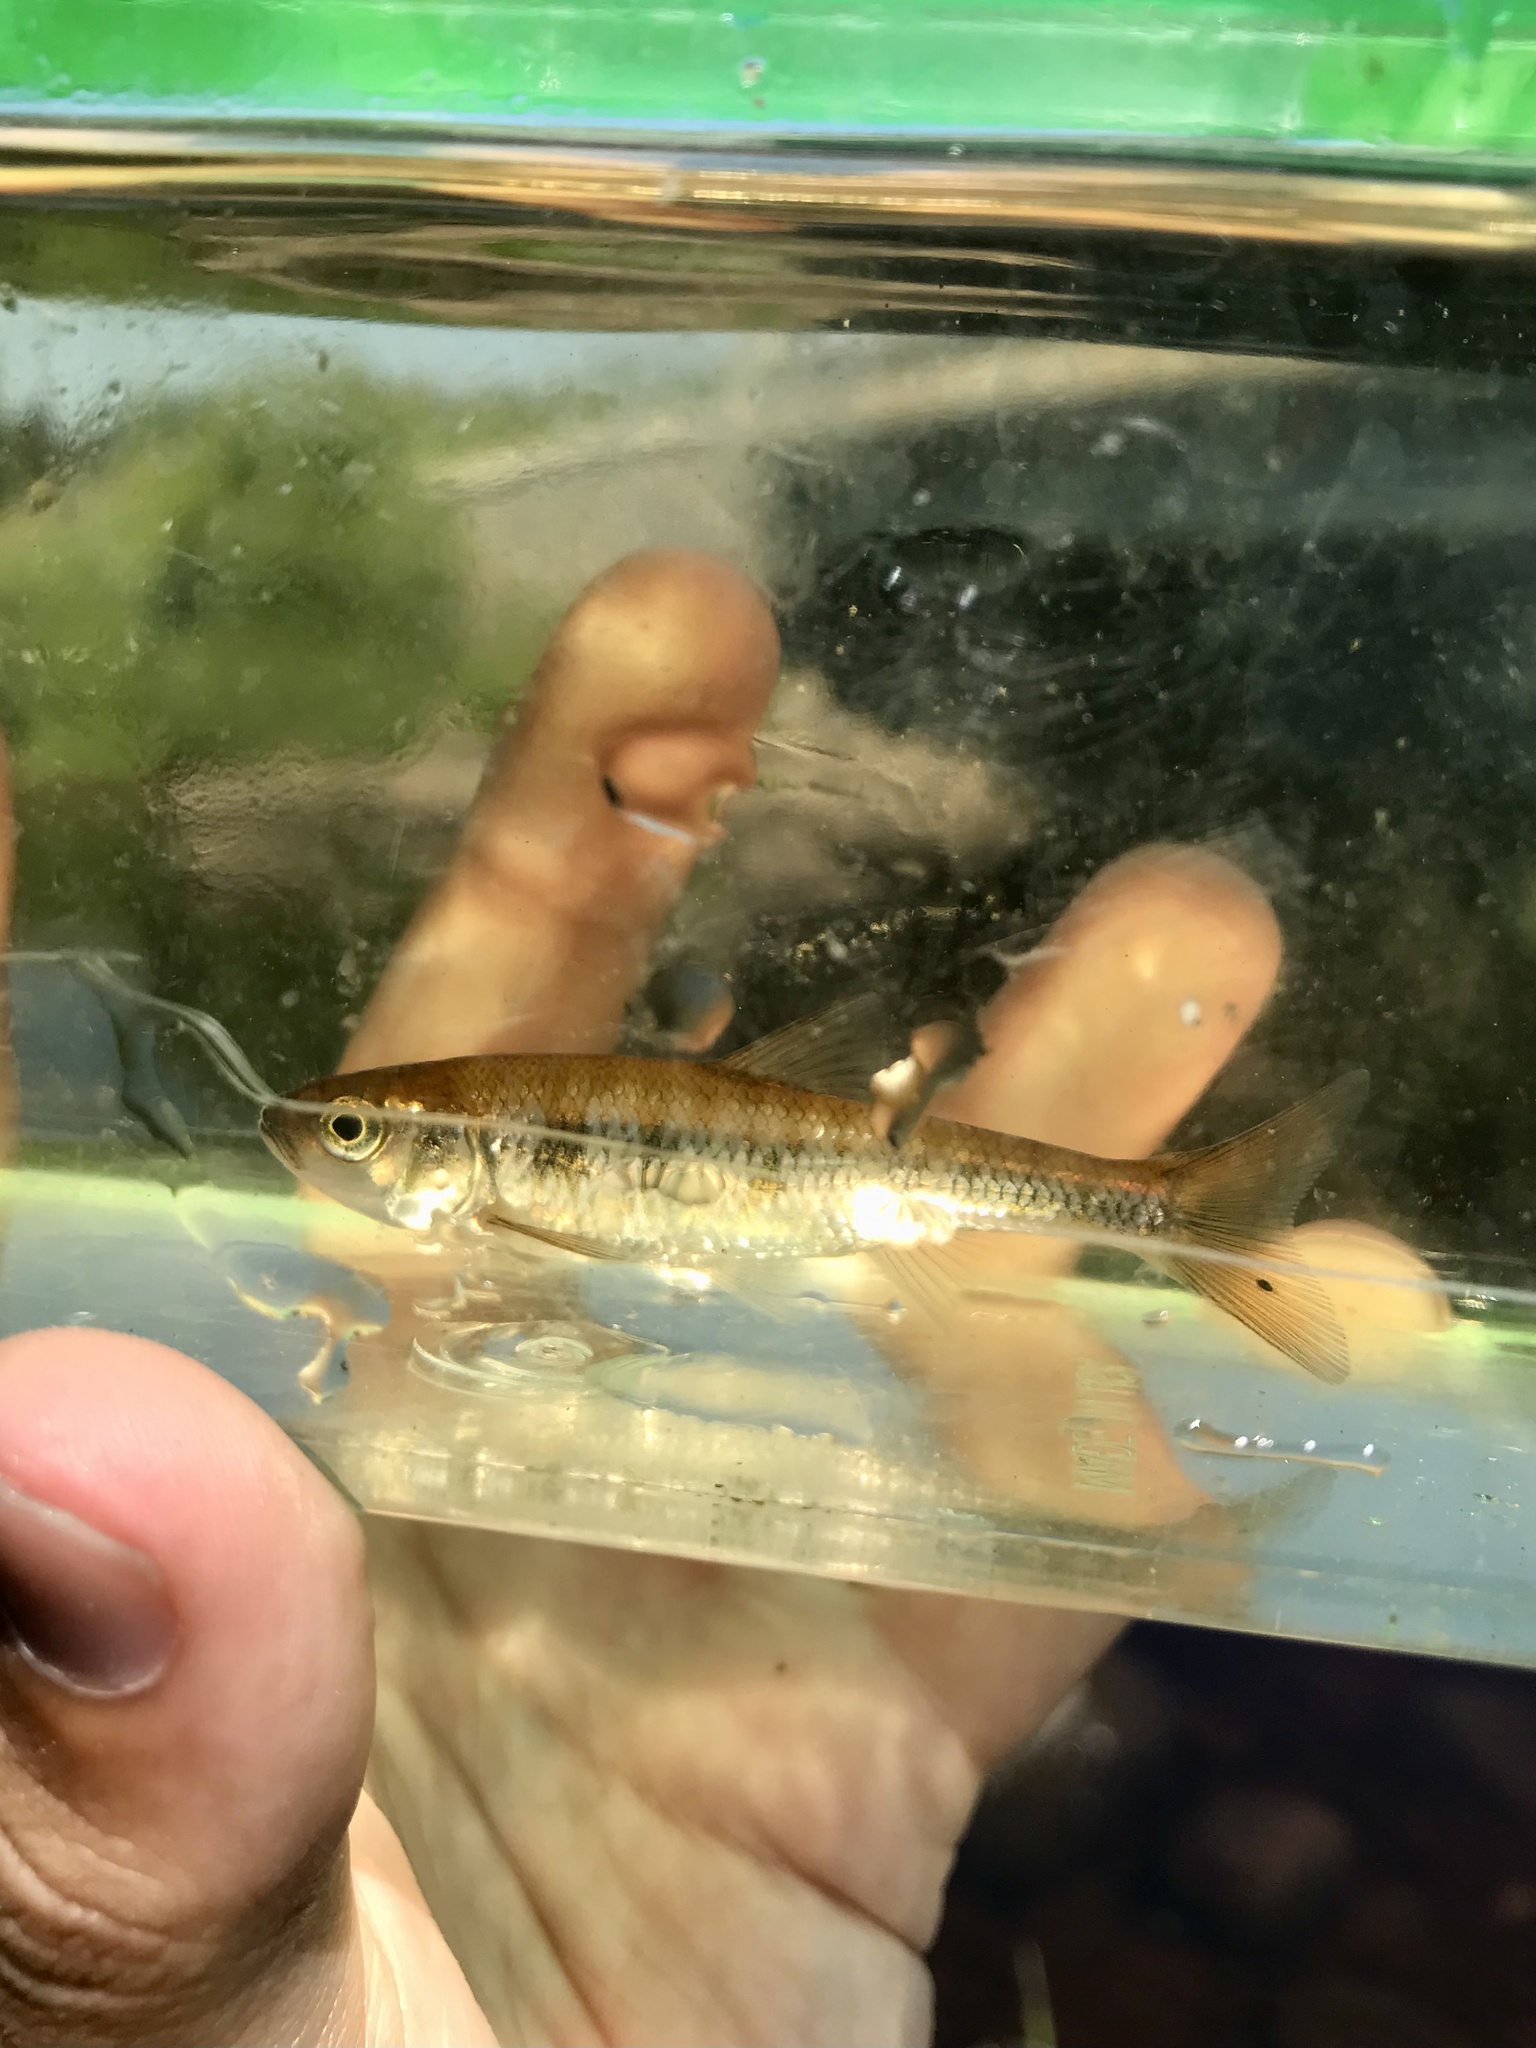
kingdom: Animalia
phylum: Chordata
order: Cypriniformes
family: Cyprinidae
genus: Luxilus
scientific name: Luxilus cornutus
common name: Common shiner
